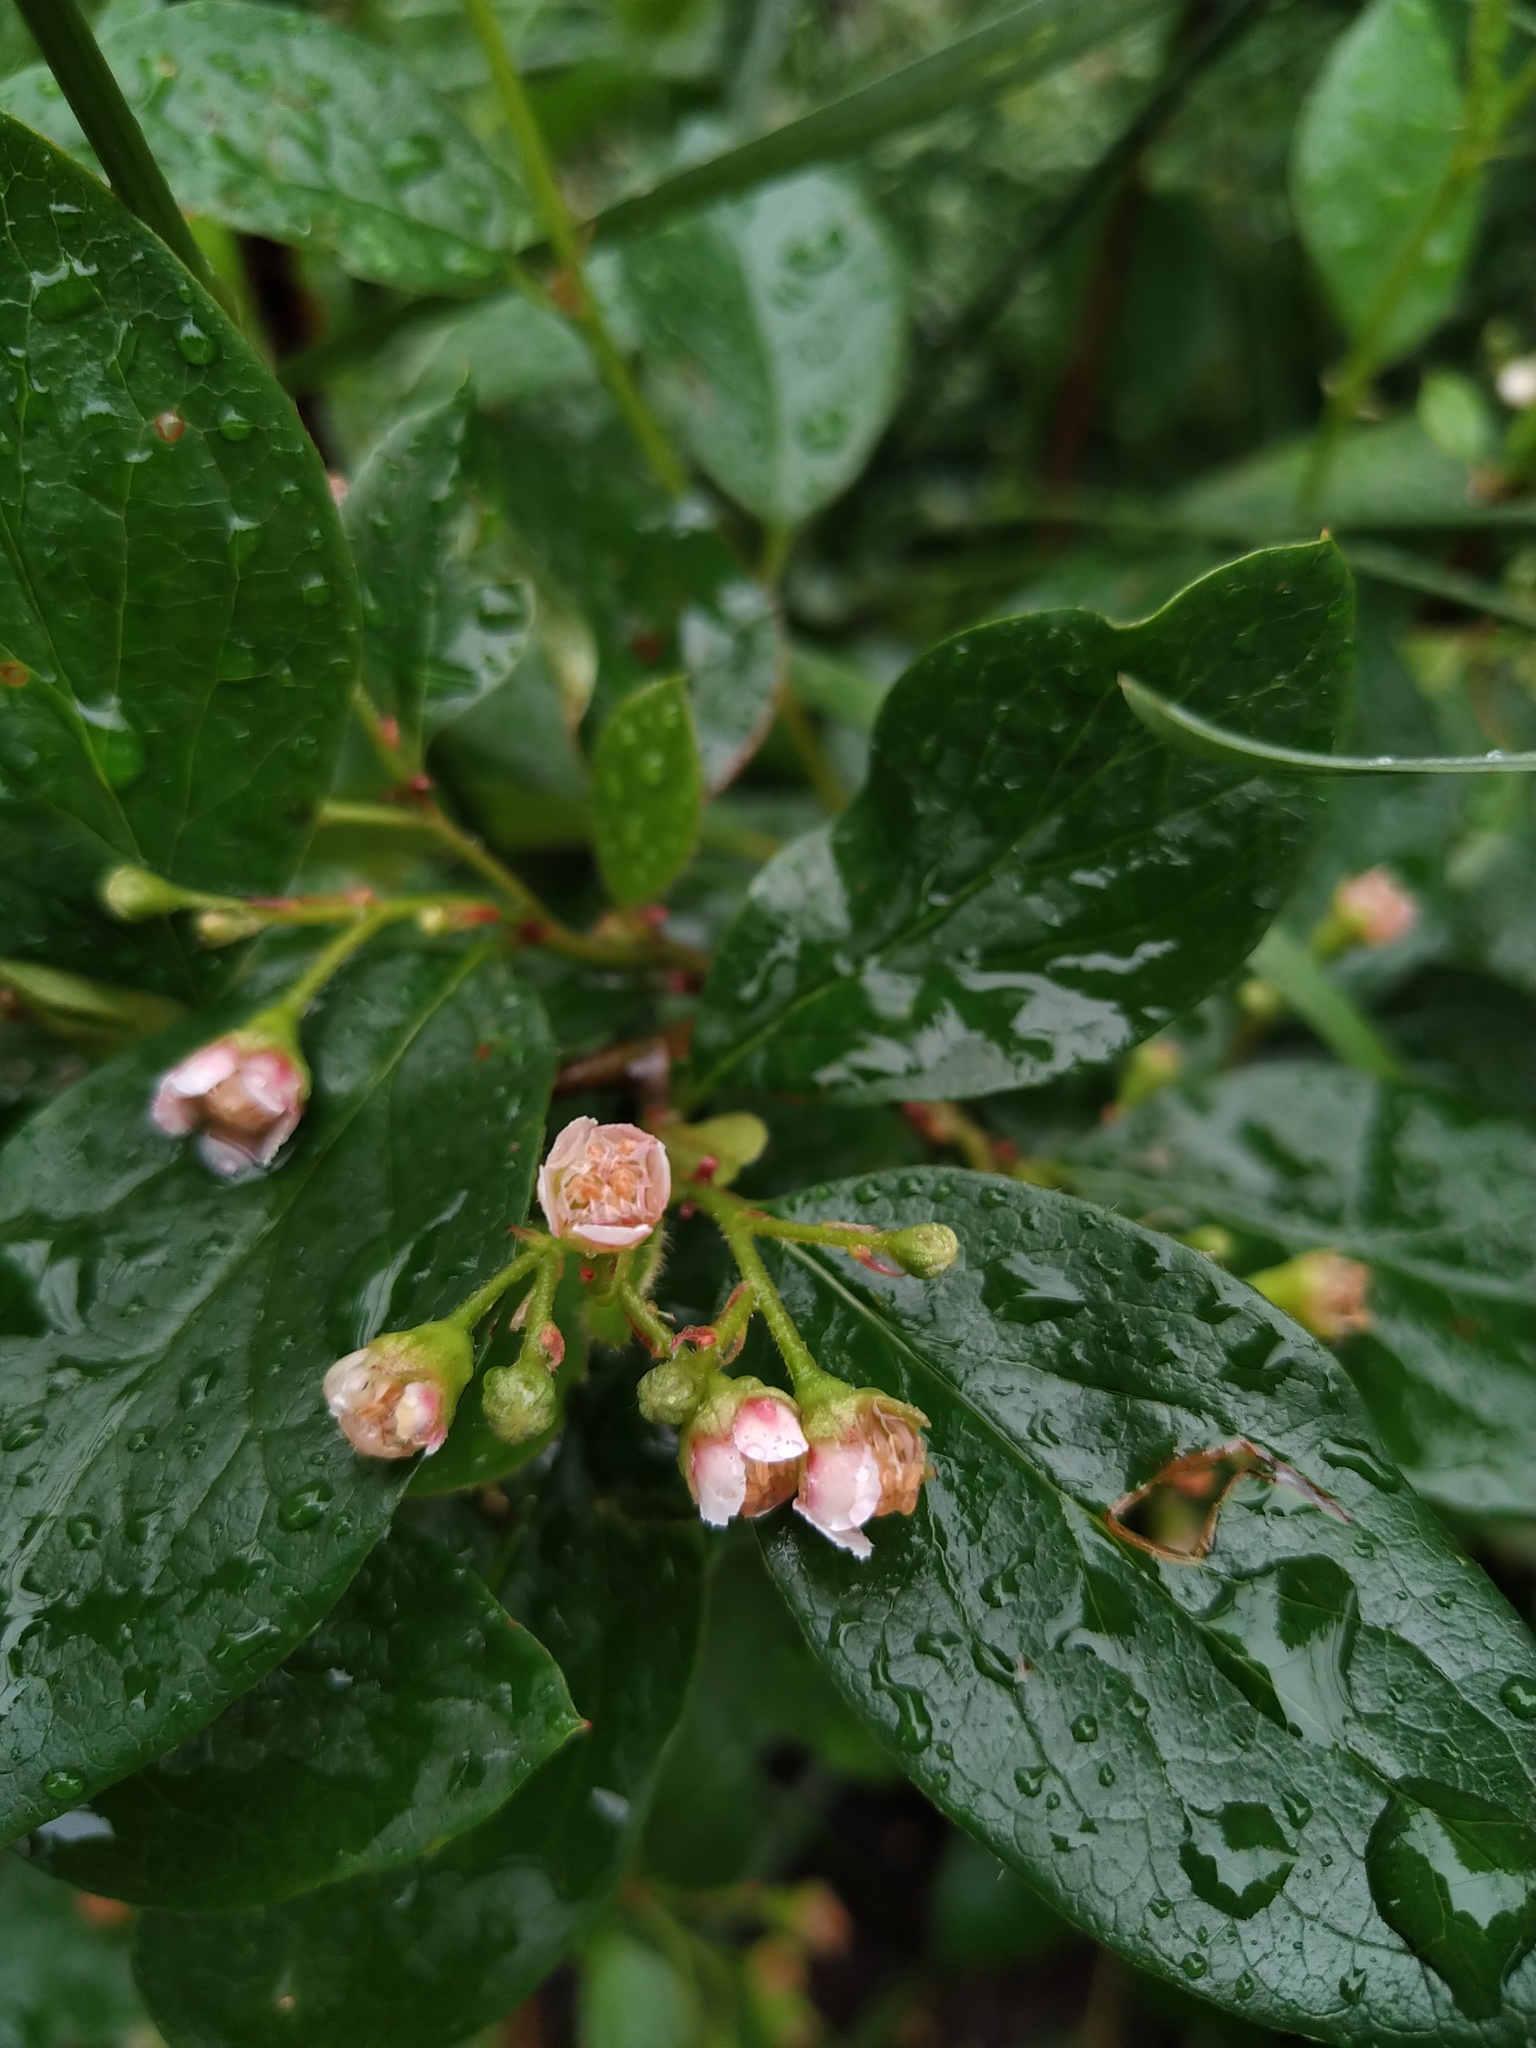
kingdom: Plantae
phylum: Tracheophyta
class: Magnoliopsida
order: Rosales
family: Rosaceae
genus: Cotoneaster
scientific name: Cotoneaster acutifolius
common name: Peking cotoneaster
